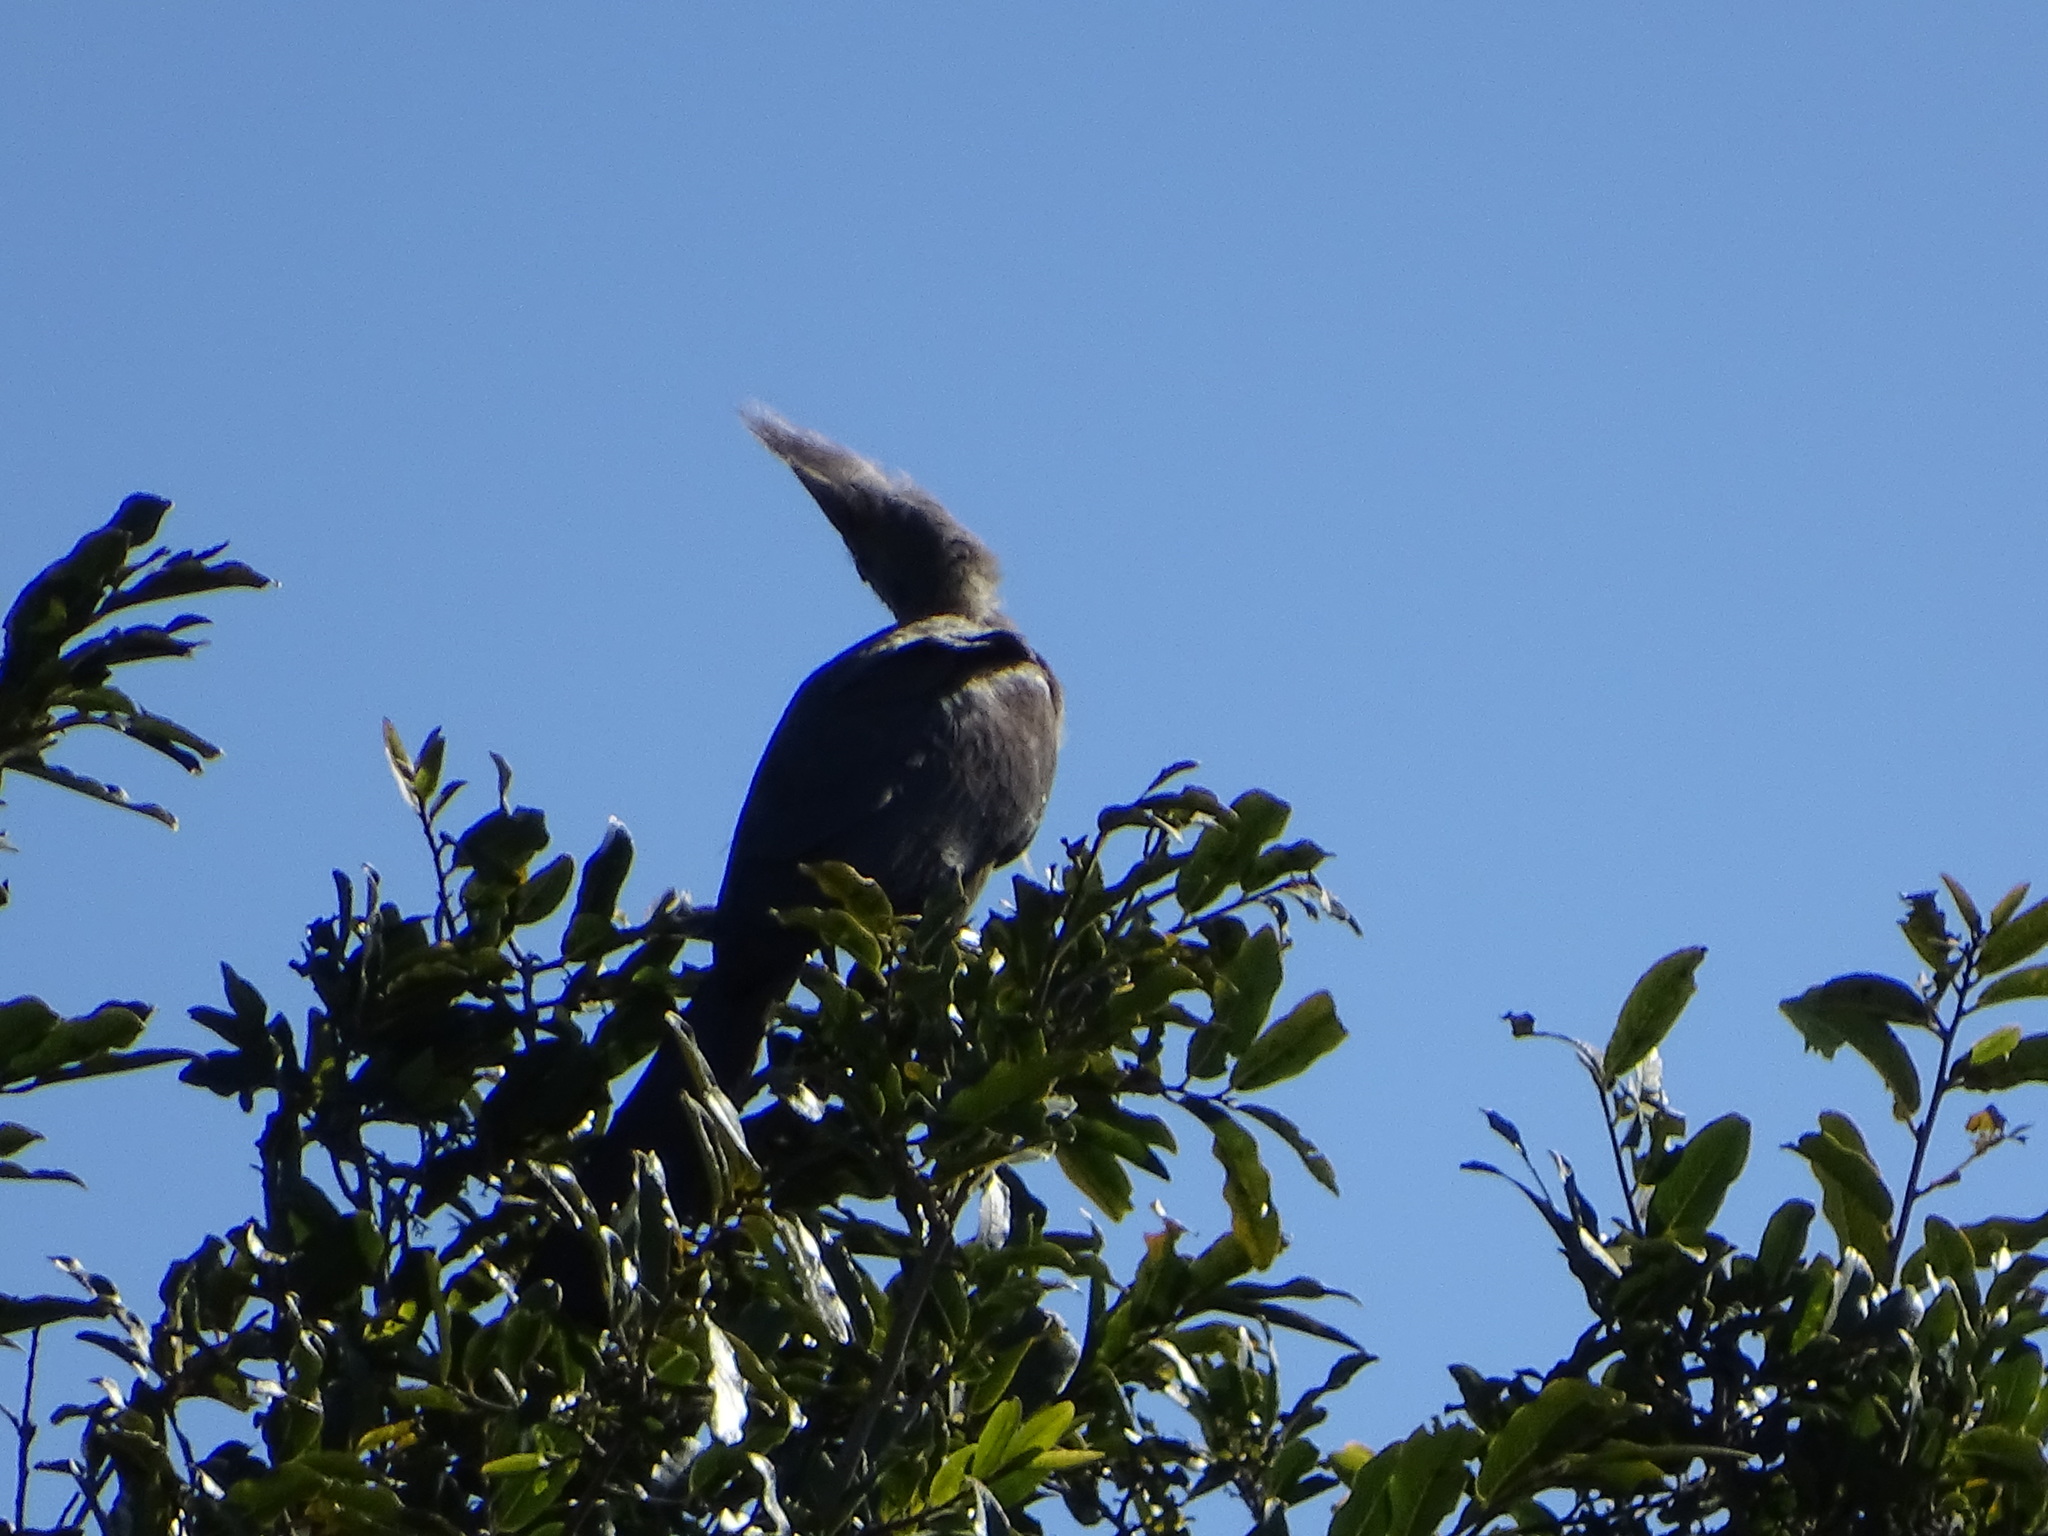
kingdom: Animalia
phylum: Chordata
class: Aves
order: Musophagiformes
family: Musophagidae
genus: Corythaixoides
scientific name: Corythaixoides concolor
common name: Grey go-away-bird
